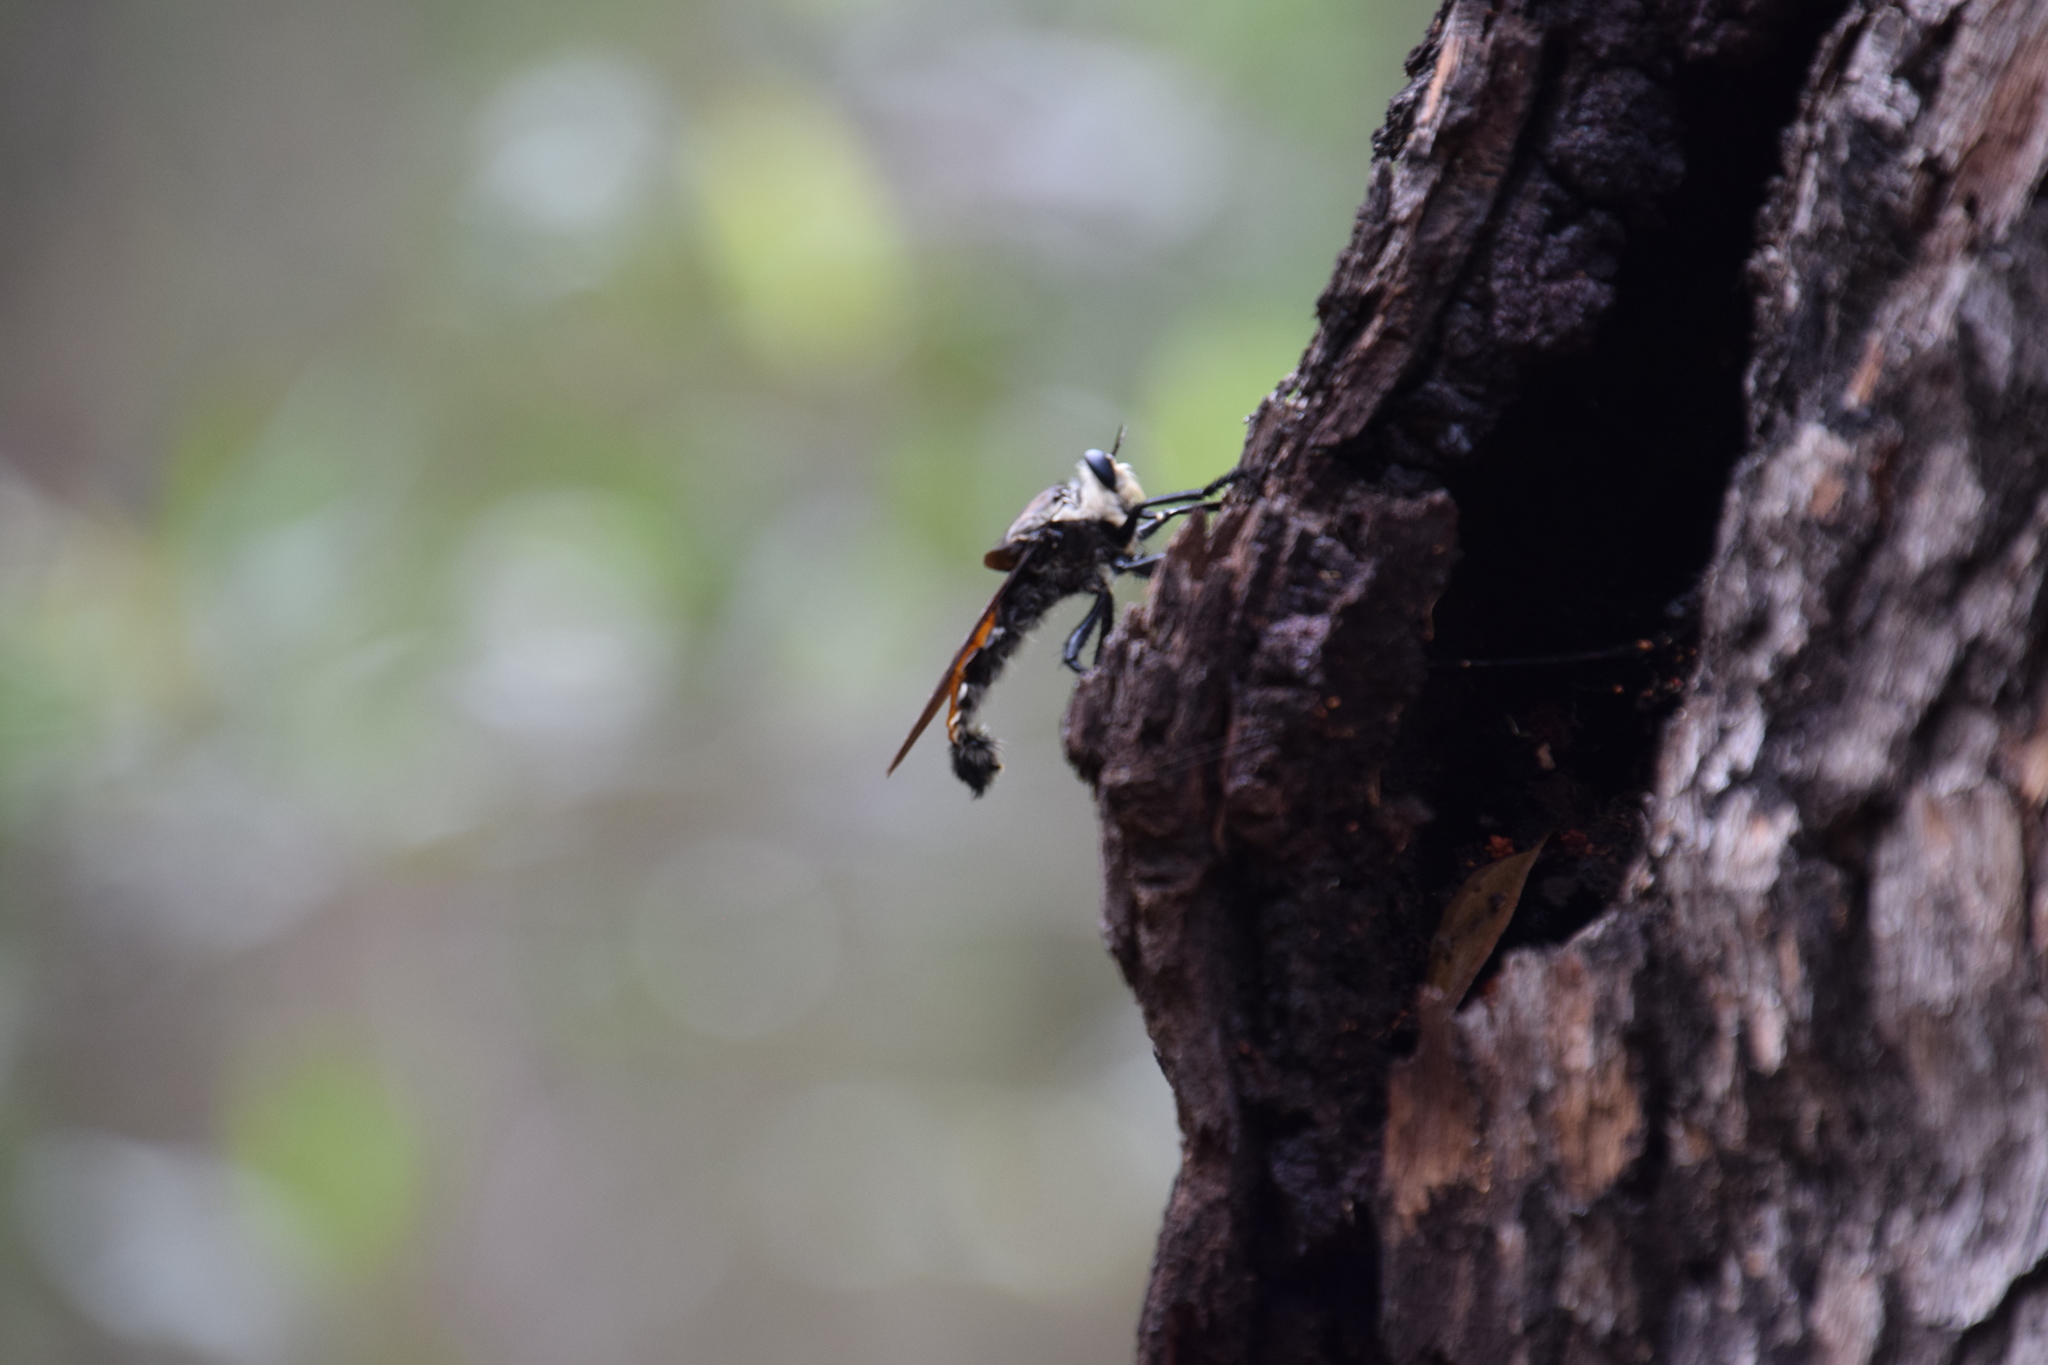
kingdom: Animalia
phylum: Arthropoda
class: Insecta
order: Diptera
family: Asilidae
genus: Blepharotes
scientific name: Blepharotes coriarius
